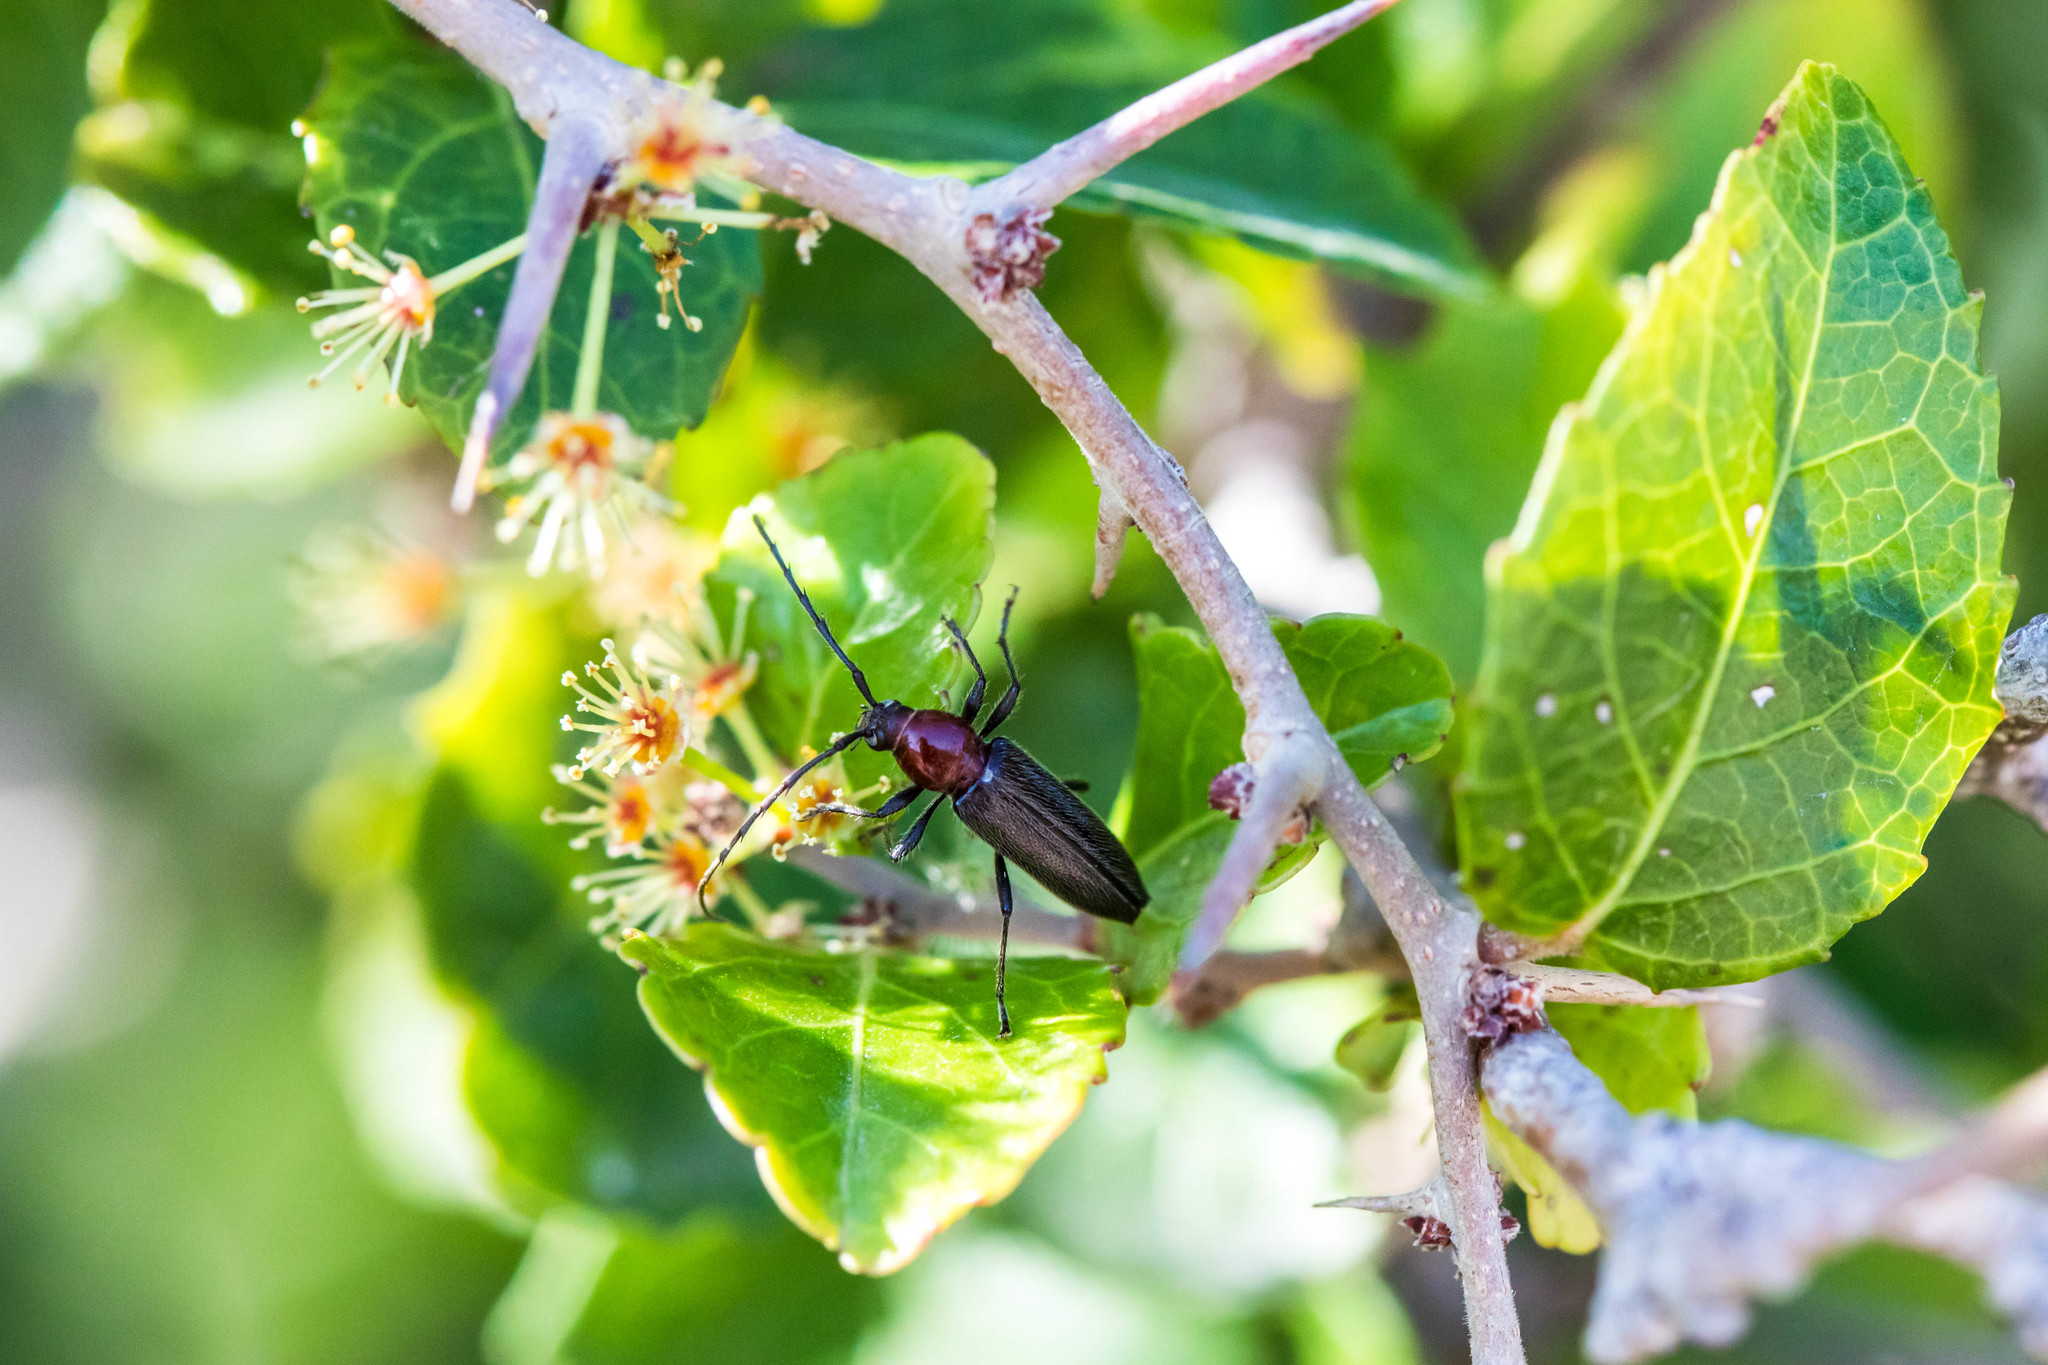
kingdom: Animalia
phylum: Arthropoda
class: Insecta
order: Coleoptera
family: Cerambycidae
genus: Stenosphenus
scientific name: Stenosphenus dolosus
